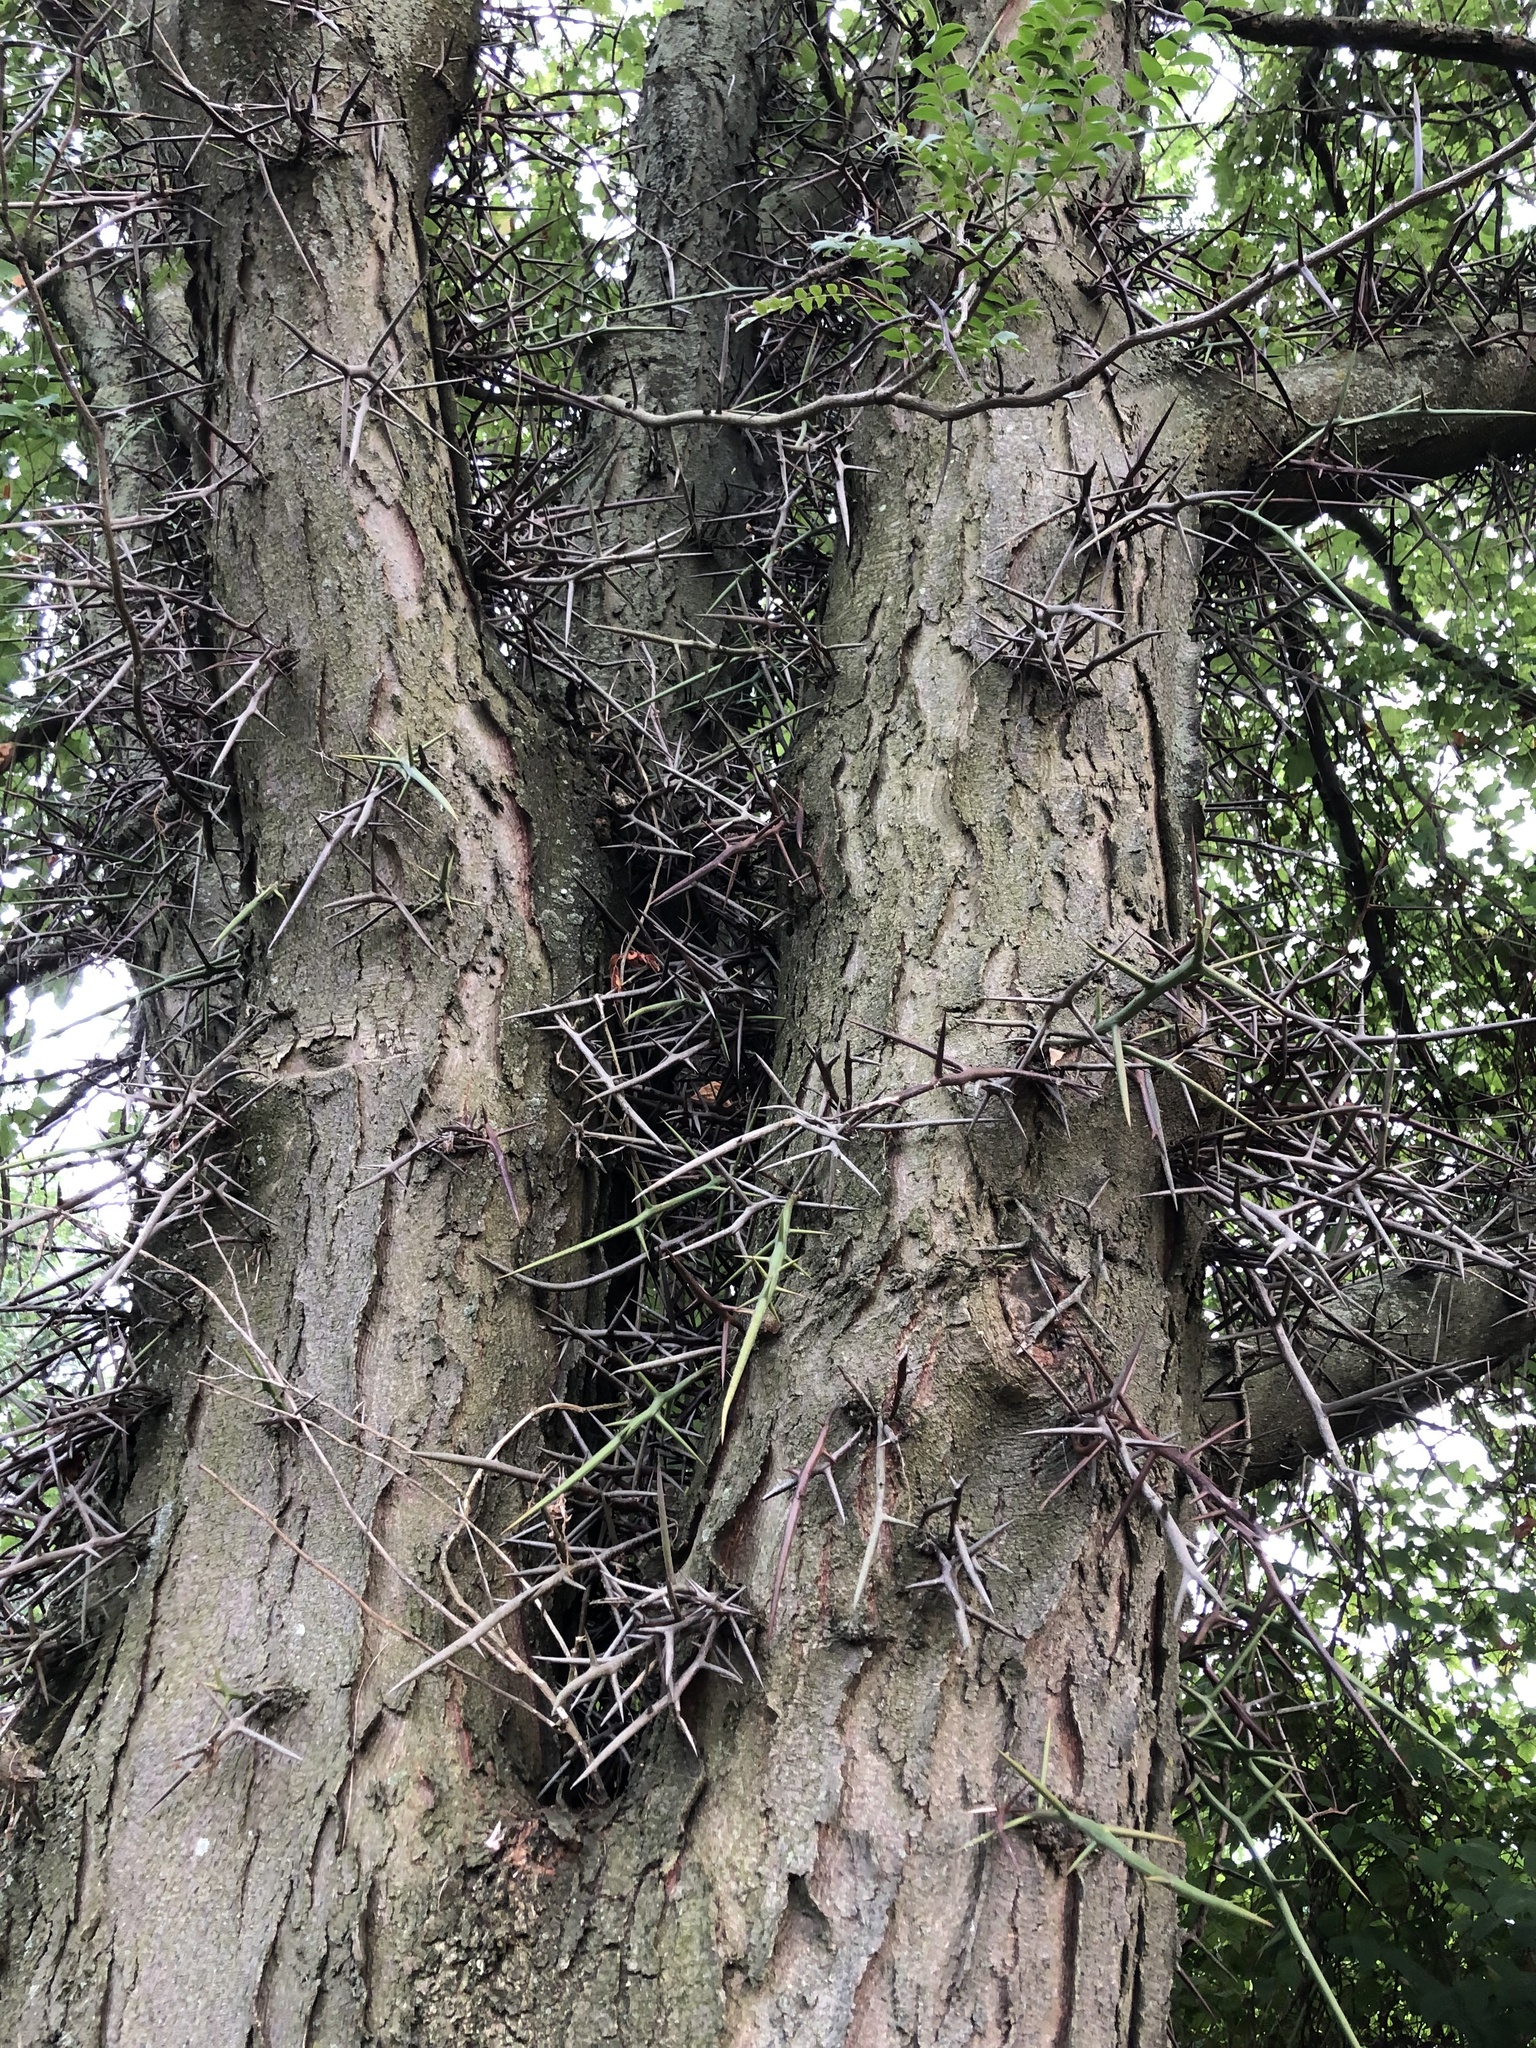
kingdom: Plantae
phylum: Tracheophyta
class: Magnoliopsida
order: Fabales
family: Fabaceae
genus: Gleditsia
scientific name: Gleditsia triacanthos
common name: Common honeylocust
